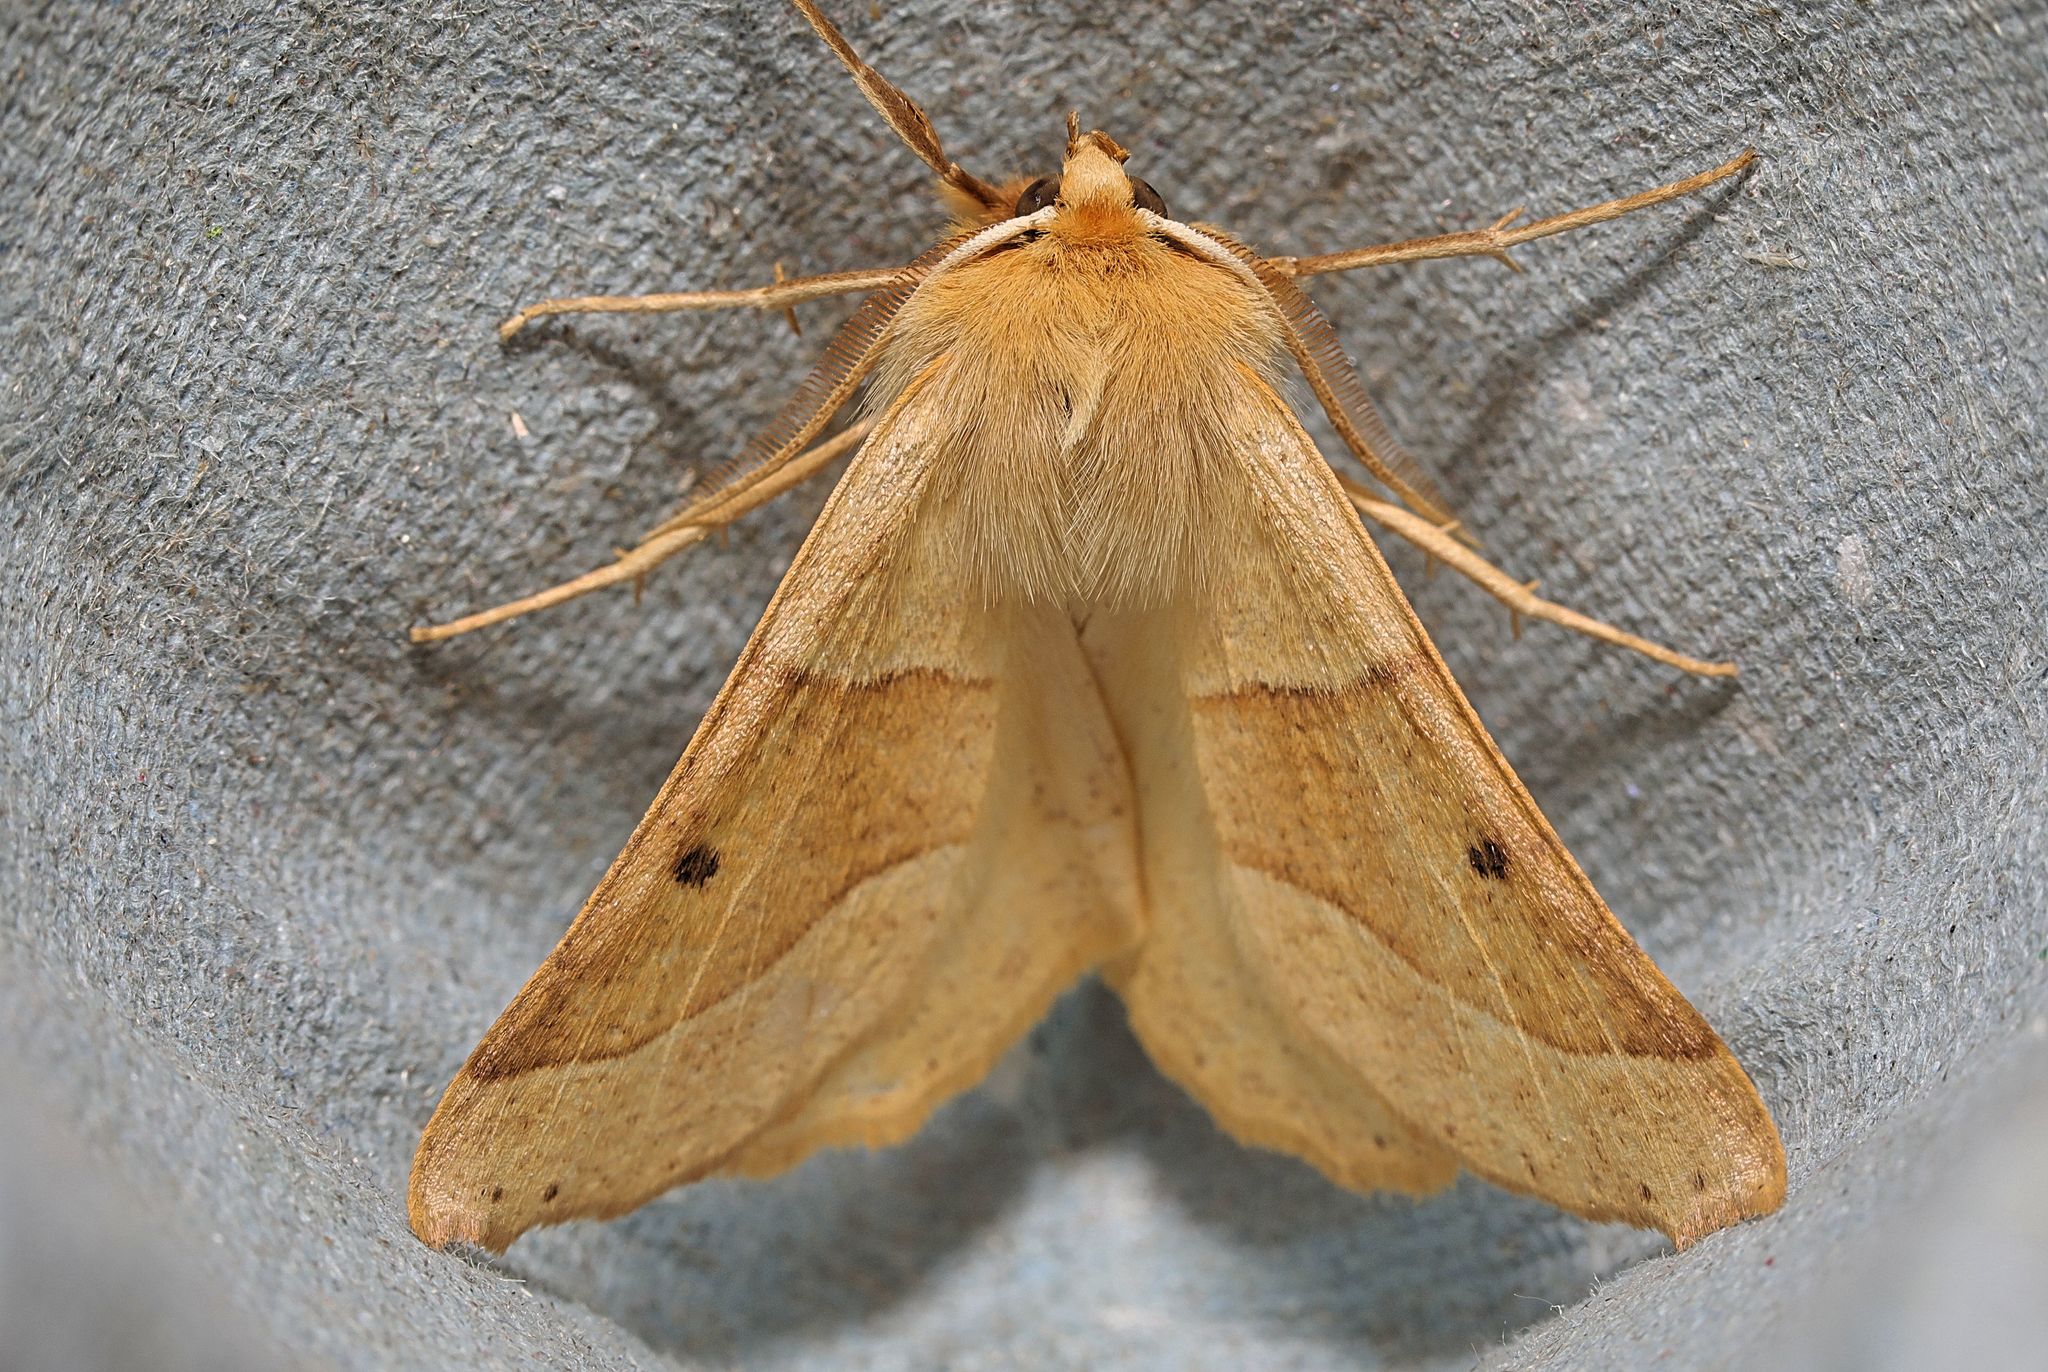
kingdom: Animalia
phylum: Arthropoda
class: Insecta
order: Lepidoptera
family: Geometridae
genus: Crocallis
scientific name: Crocallis elinguaria
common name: Scalloped oak
